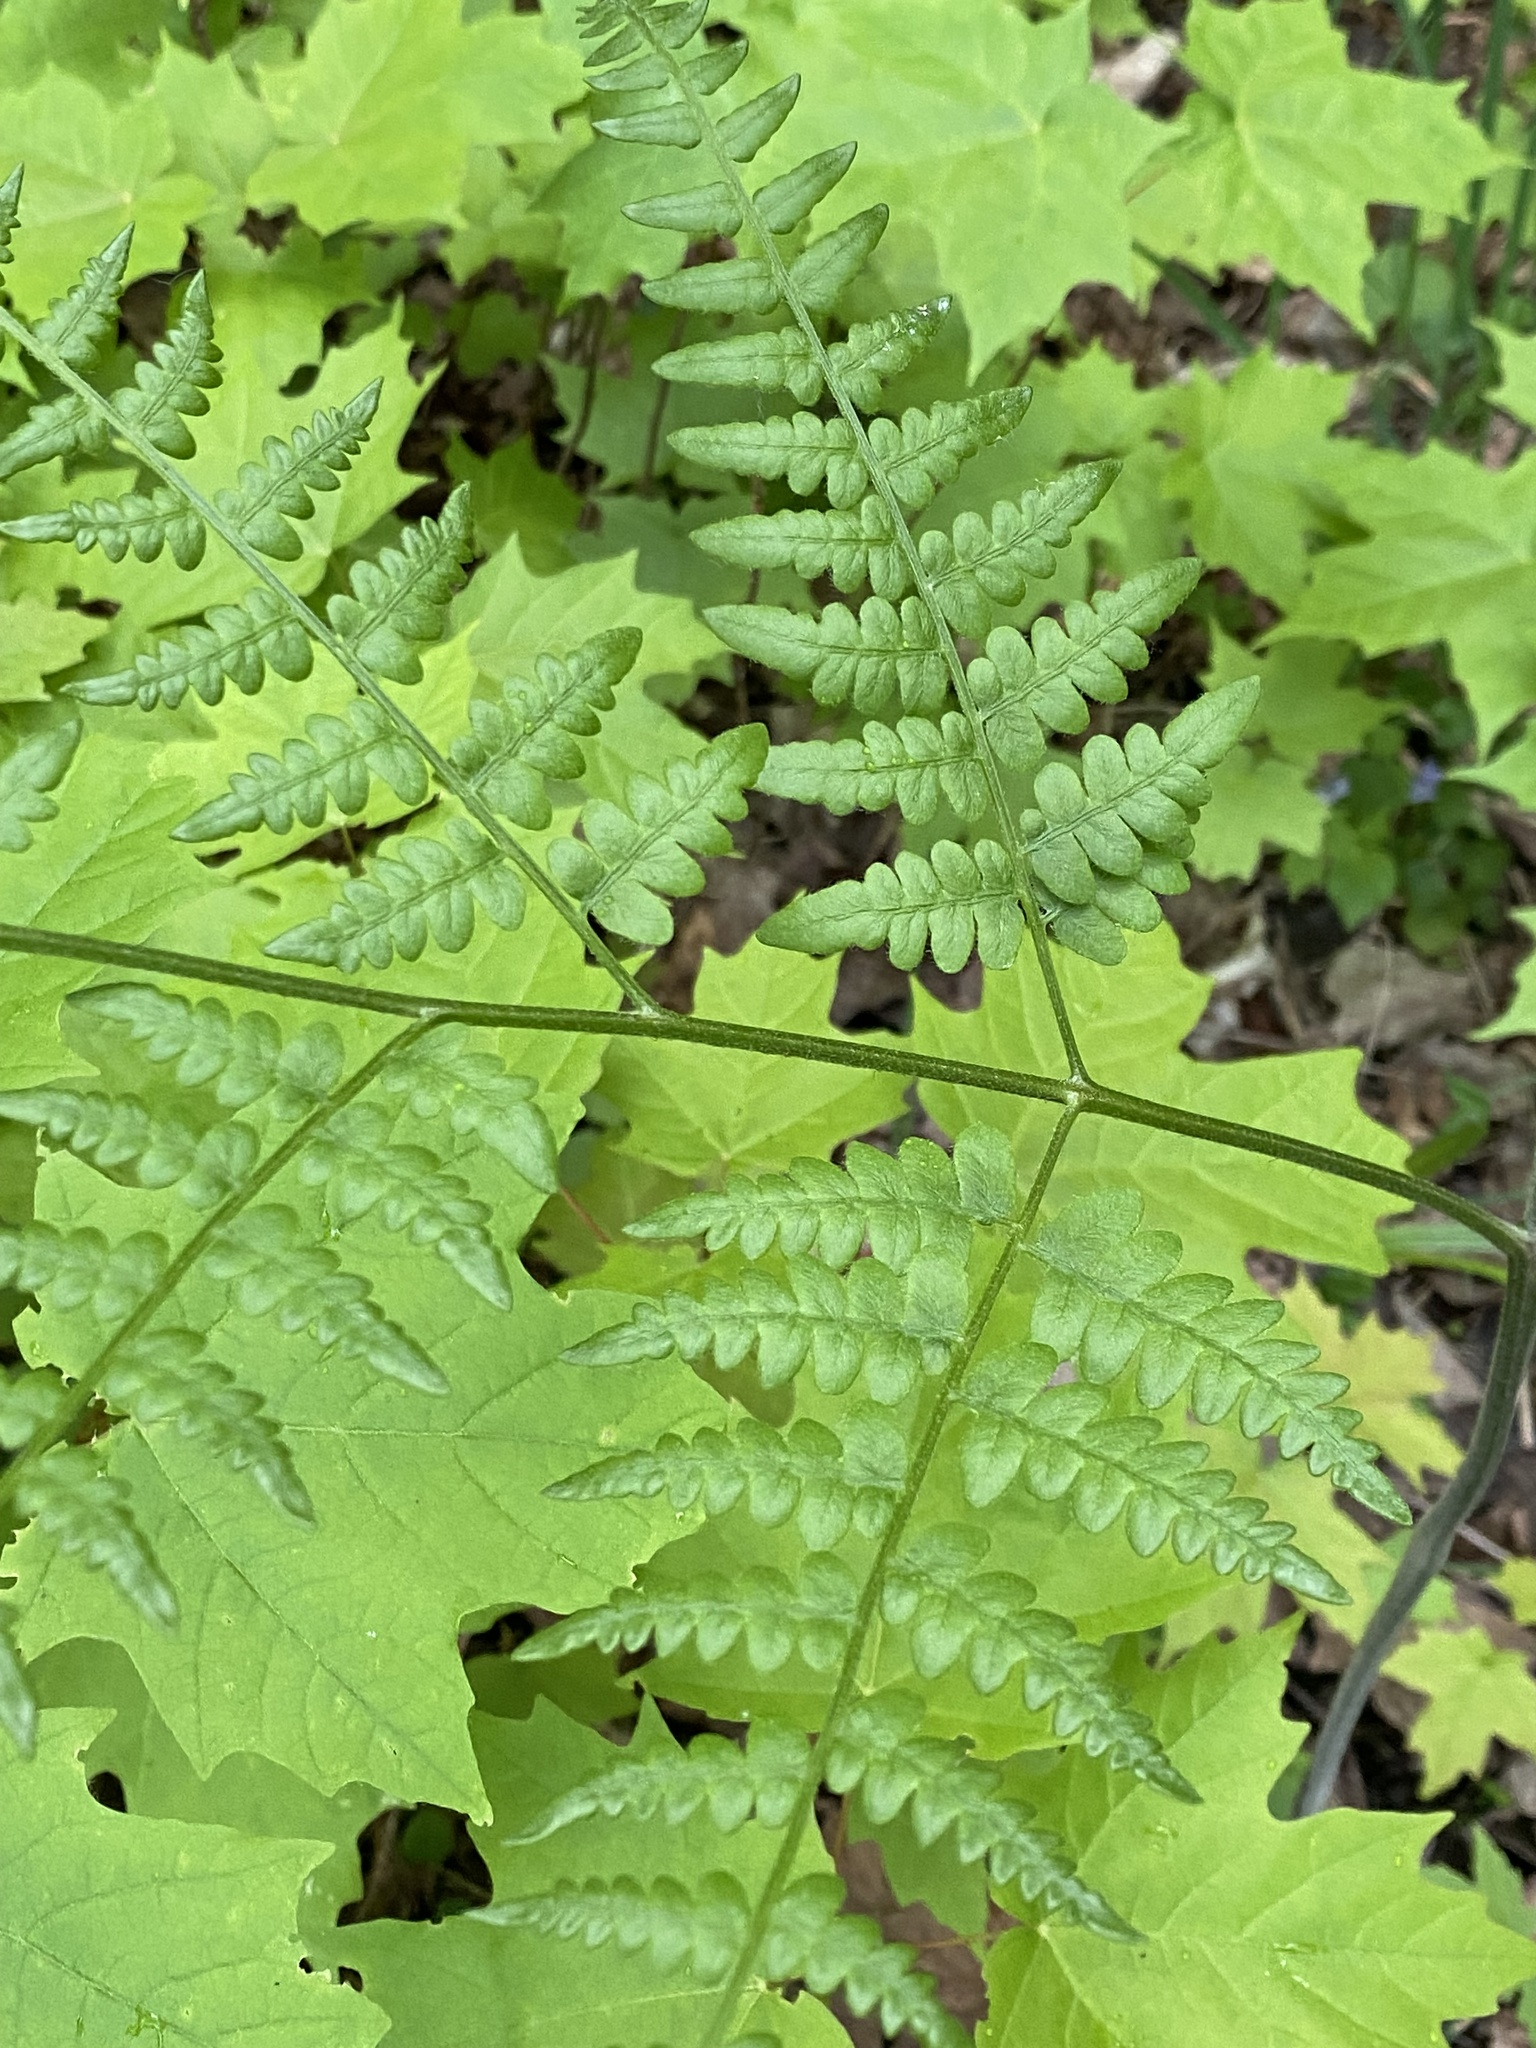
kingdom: Plantae
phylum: Tracheophyta
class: Polypodiopsida
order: Polypodiales
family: Dennstaedtiaceae
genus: Pteridium
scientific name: Pteridium aquilinum
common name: Bracken
